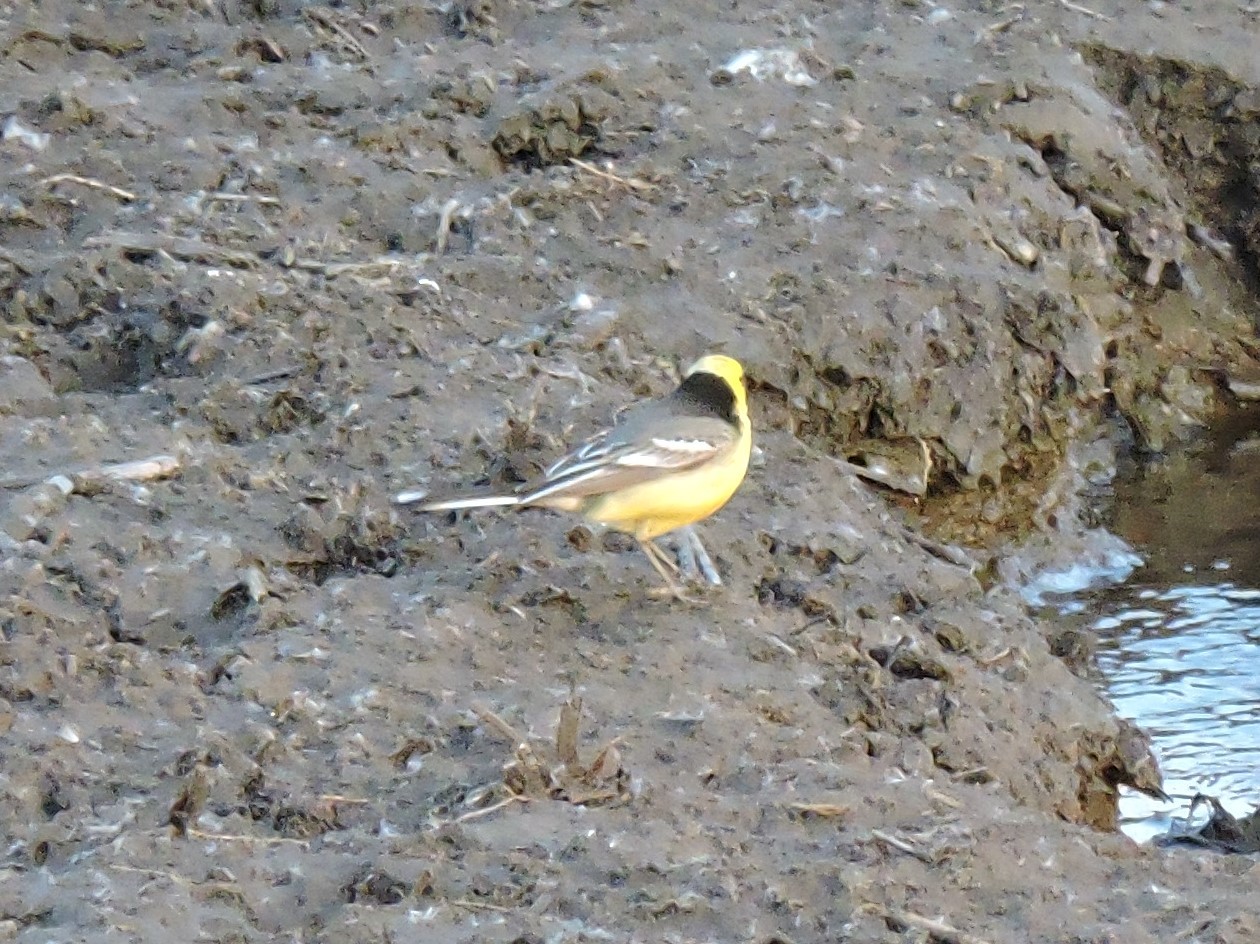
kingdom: Animalia
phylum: Chordata
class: Aves
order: Passeriformes
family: Motacillidae
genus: Motacilla
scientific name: Motacilla citreola
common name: Citrine wagtail
